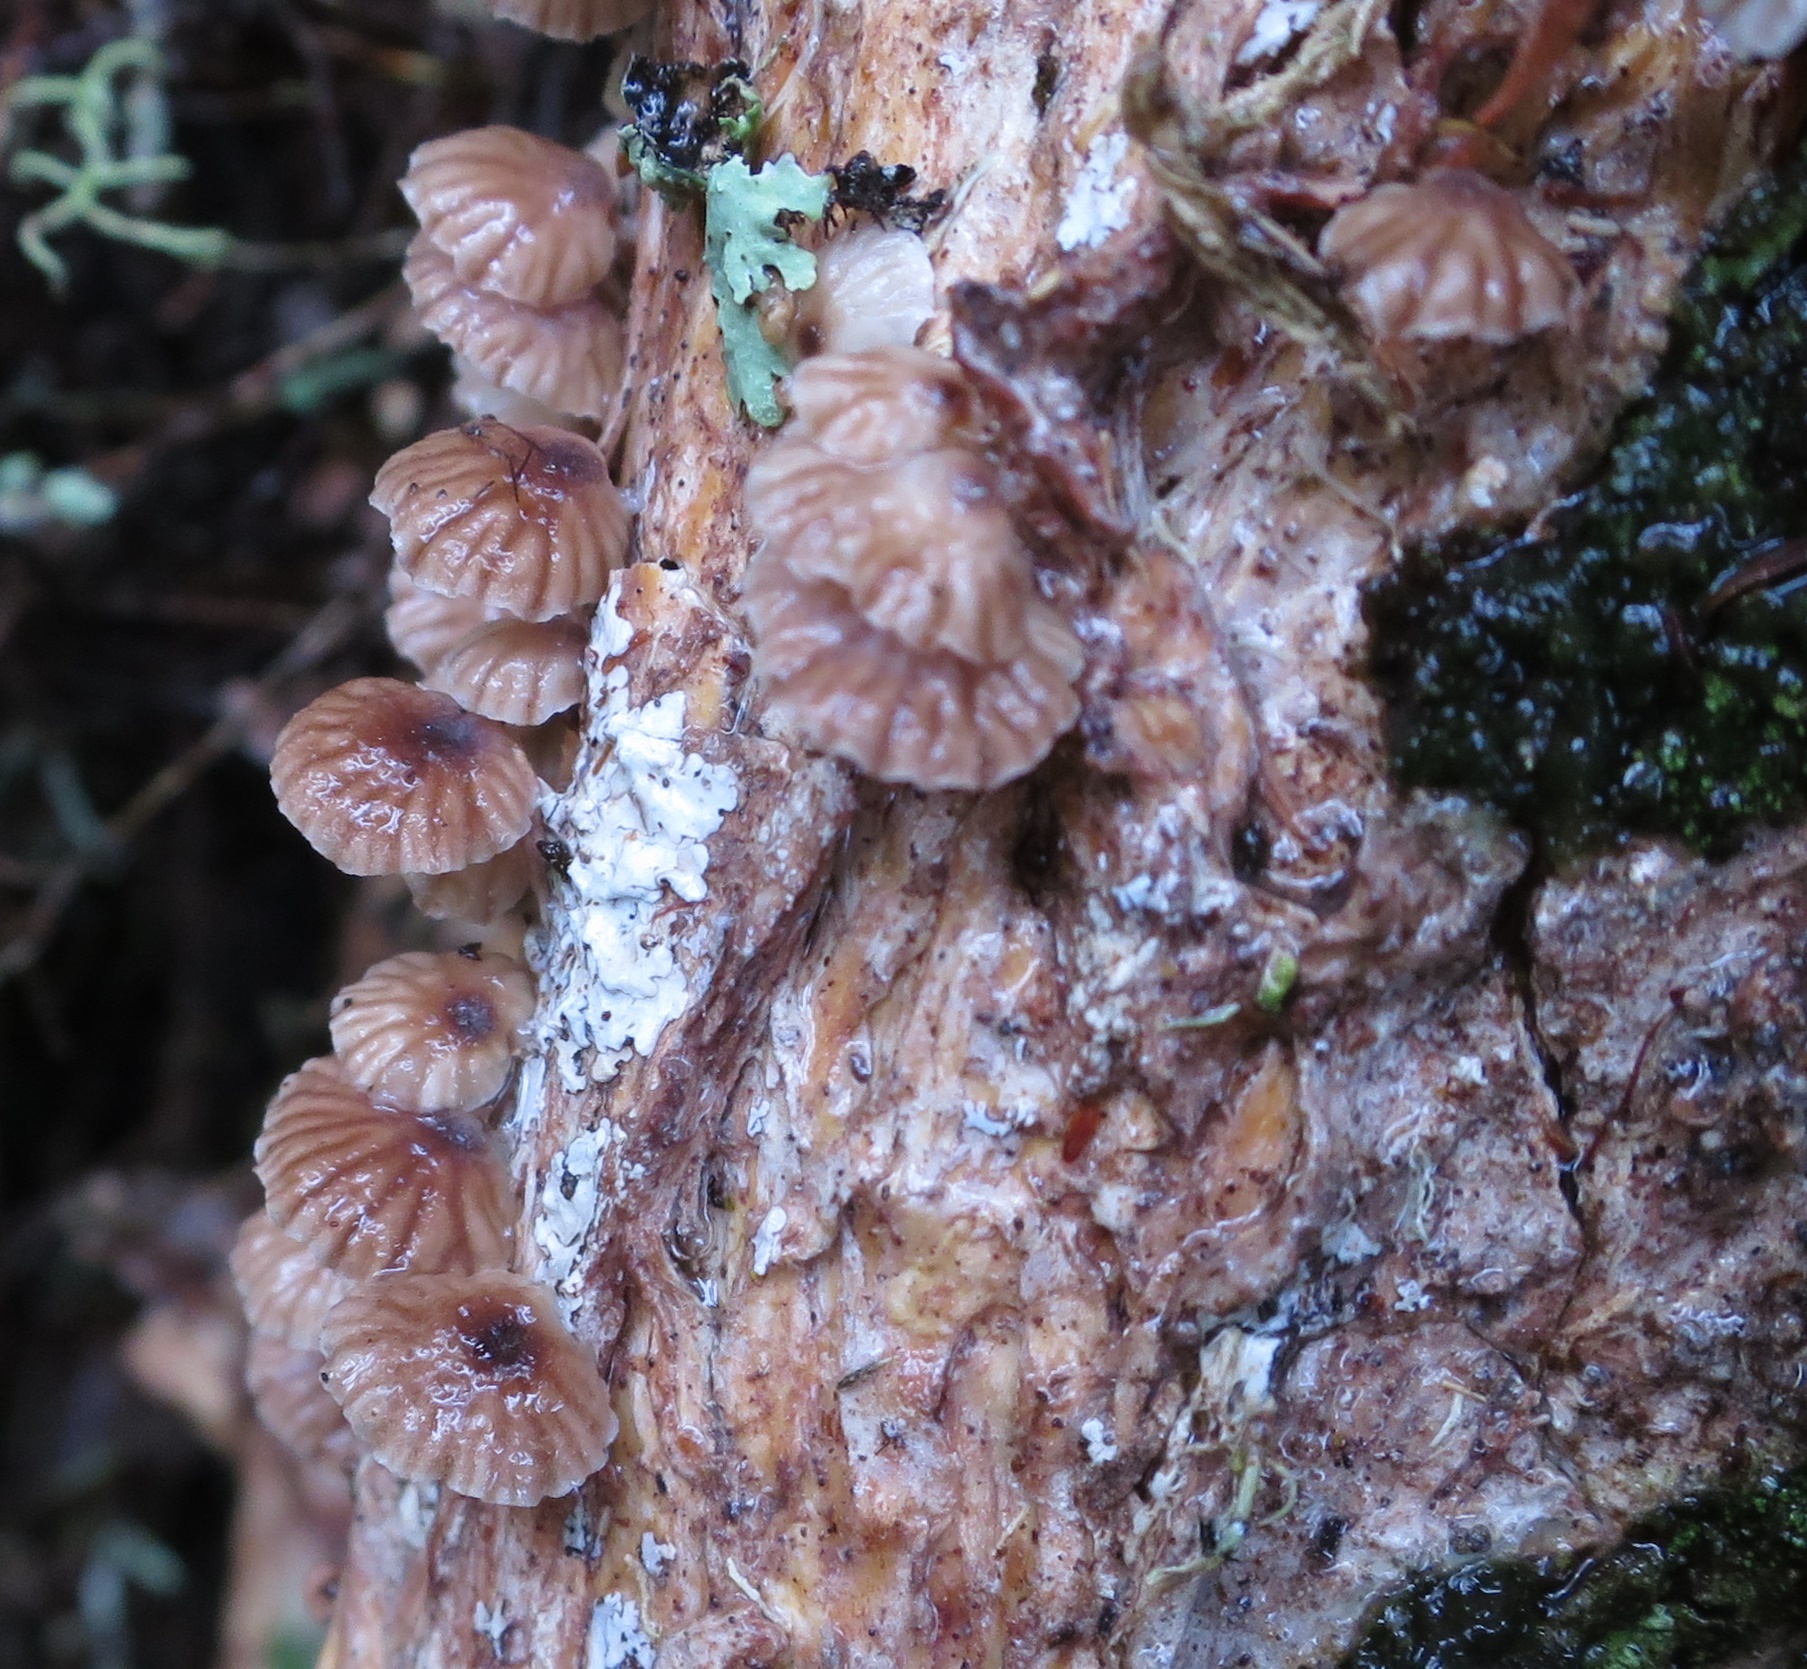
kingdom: Fungi
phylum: Basidiomycota
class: Agaricomycetes
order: Agaricales
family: Omphalotaceae
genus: Gymnopus
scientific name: Gymnopus imbricatus
